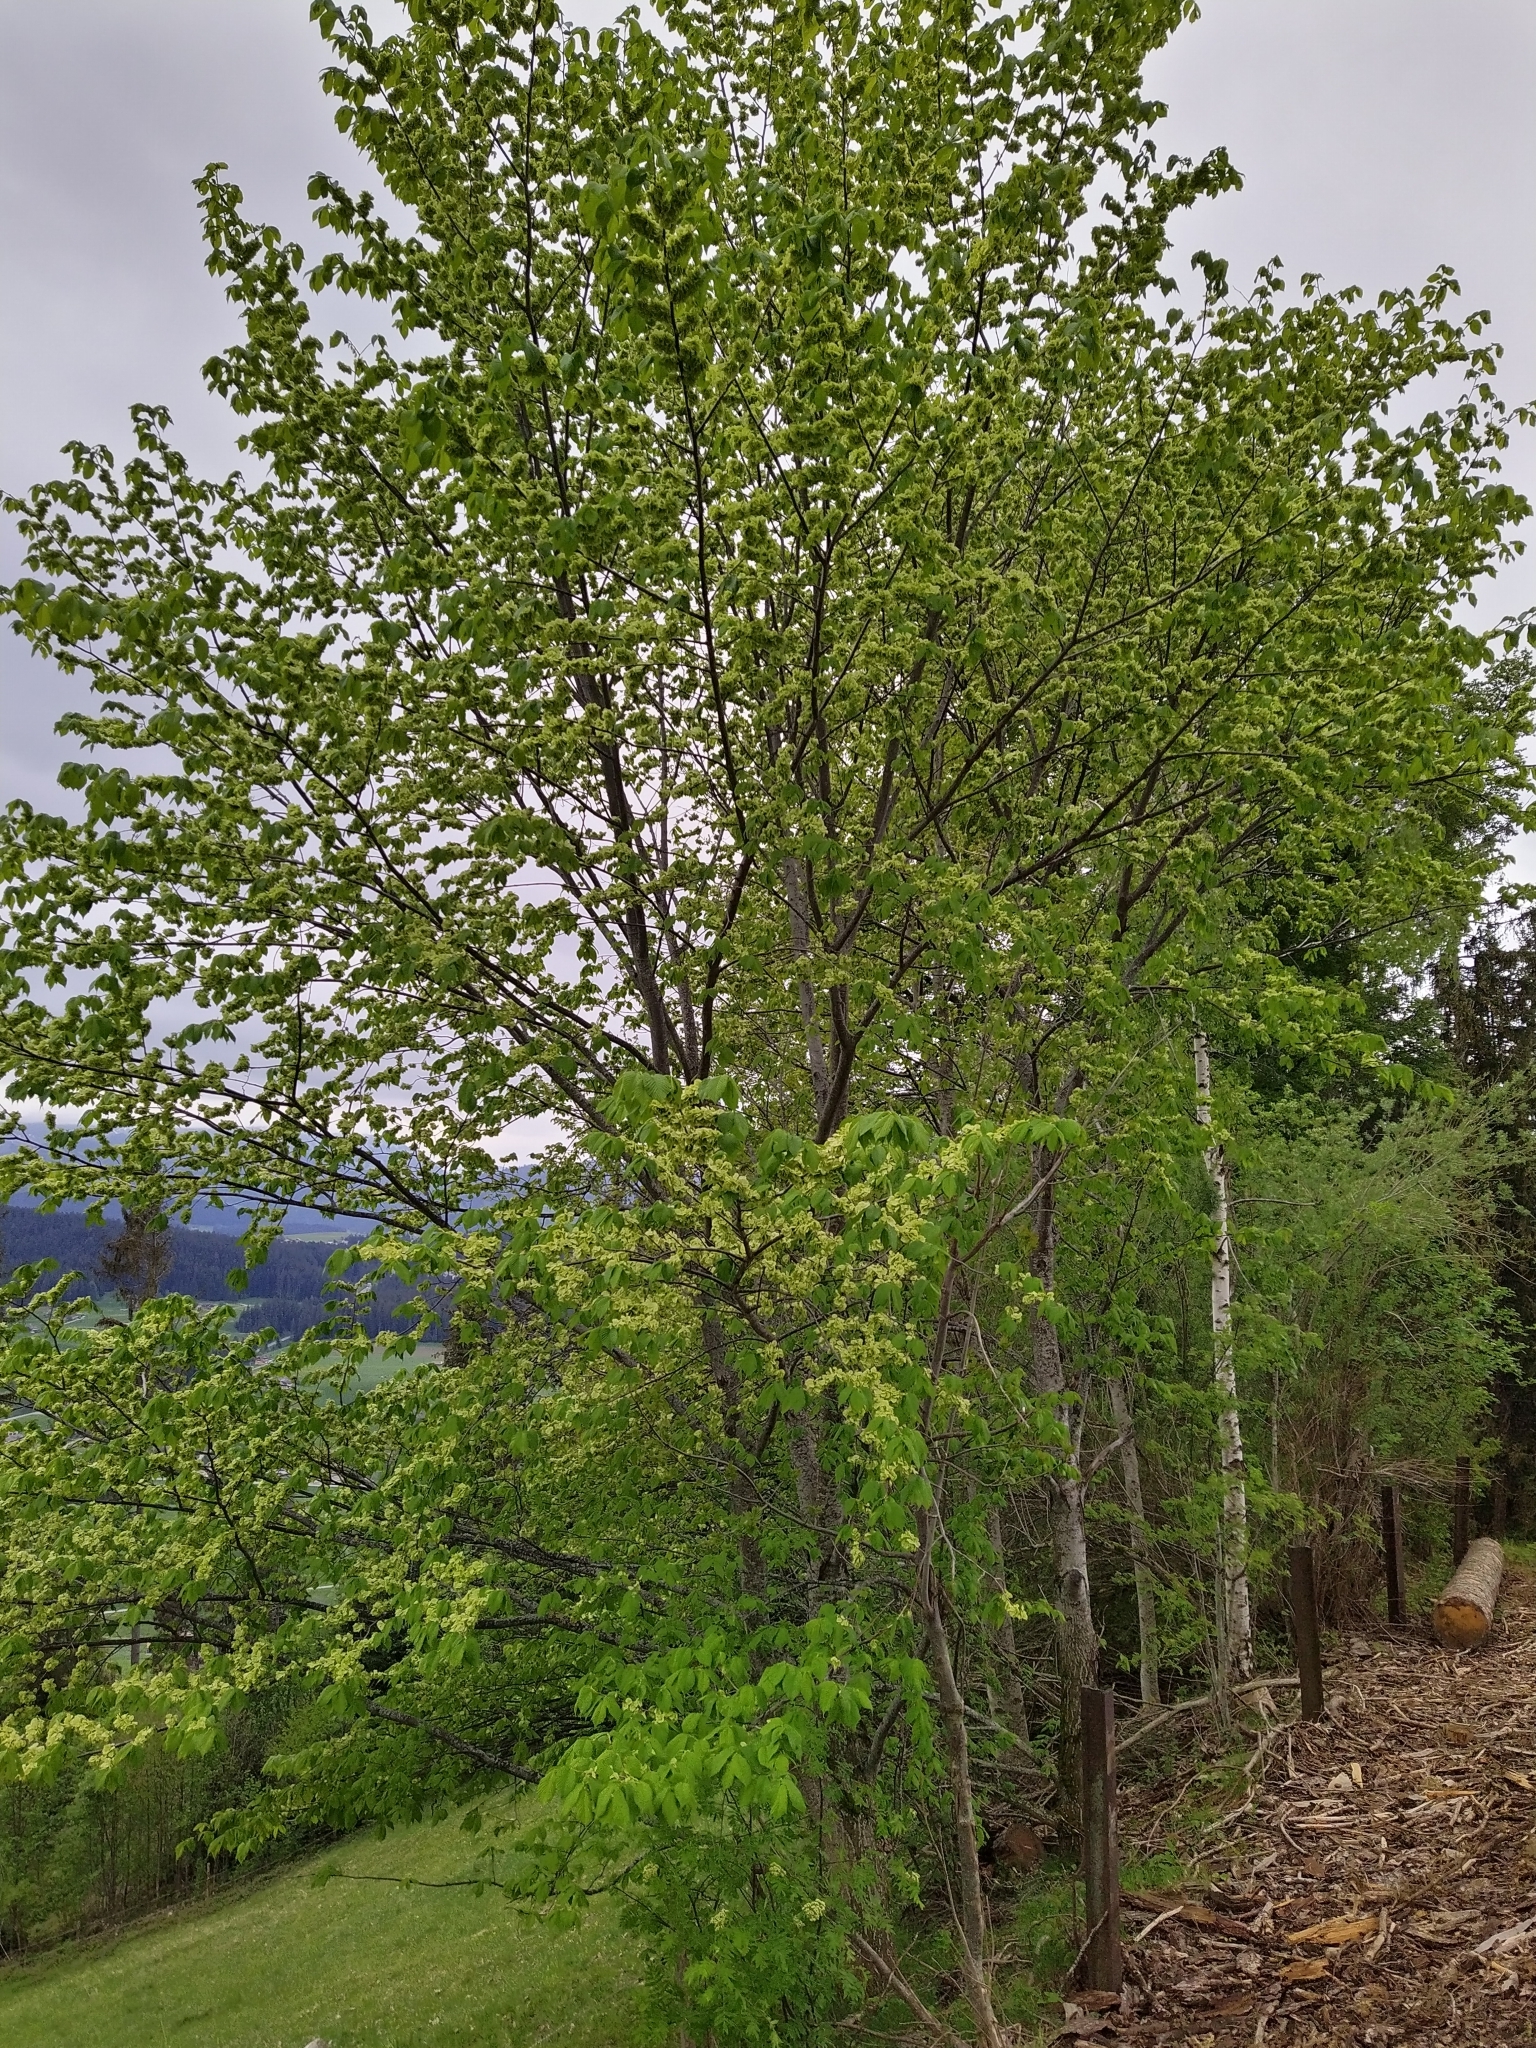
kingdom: Plantae
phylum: Tracheophyta
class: Magnoliopsida
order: Rosales
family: Ulmaceae
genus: Ulmus
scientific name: Ulmus glabra
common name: Wych elm
